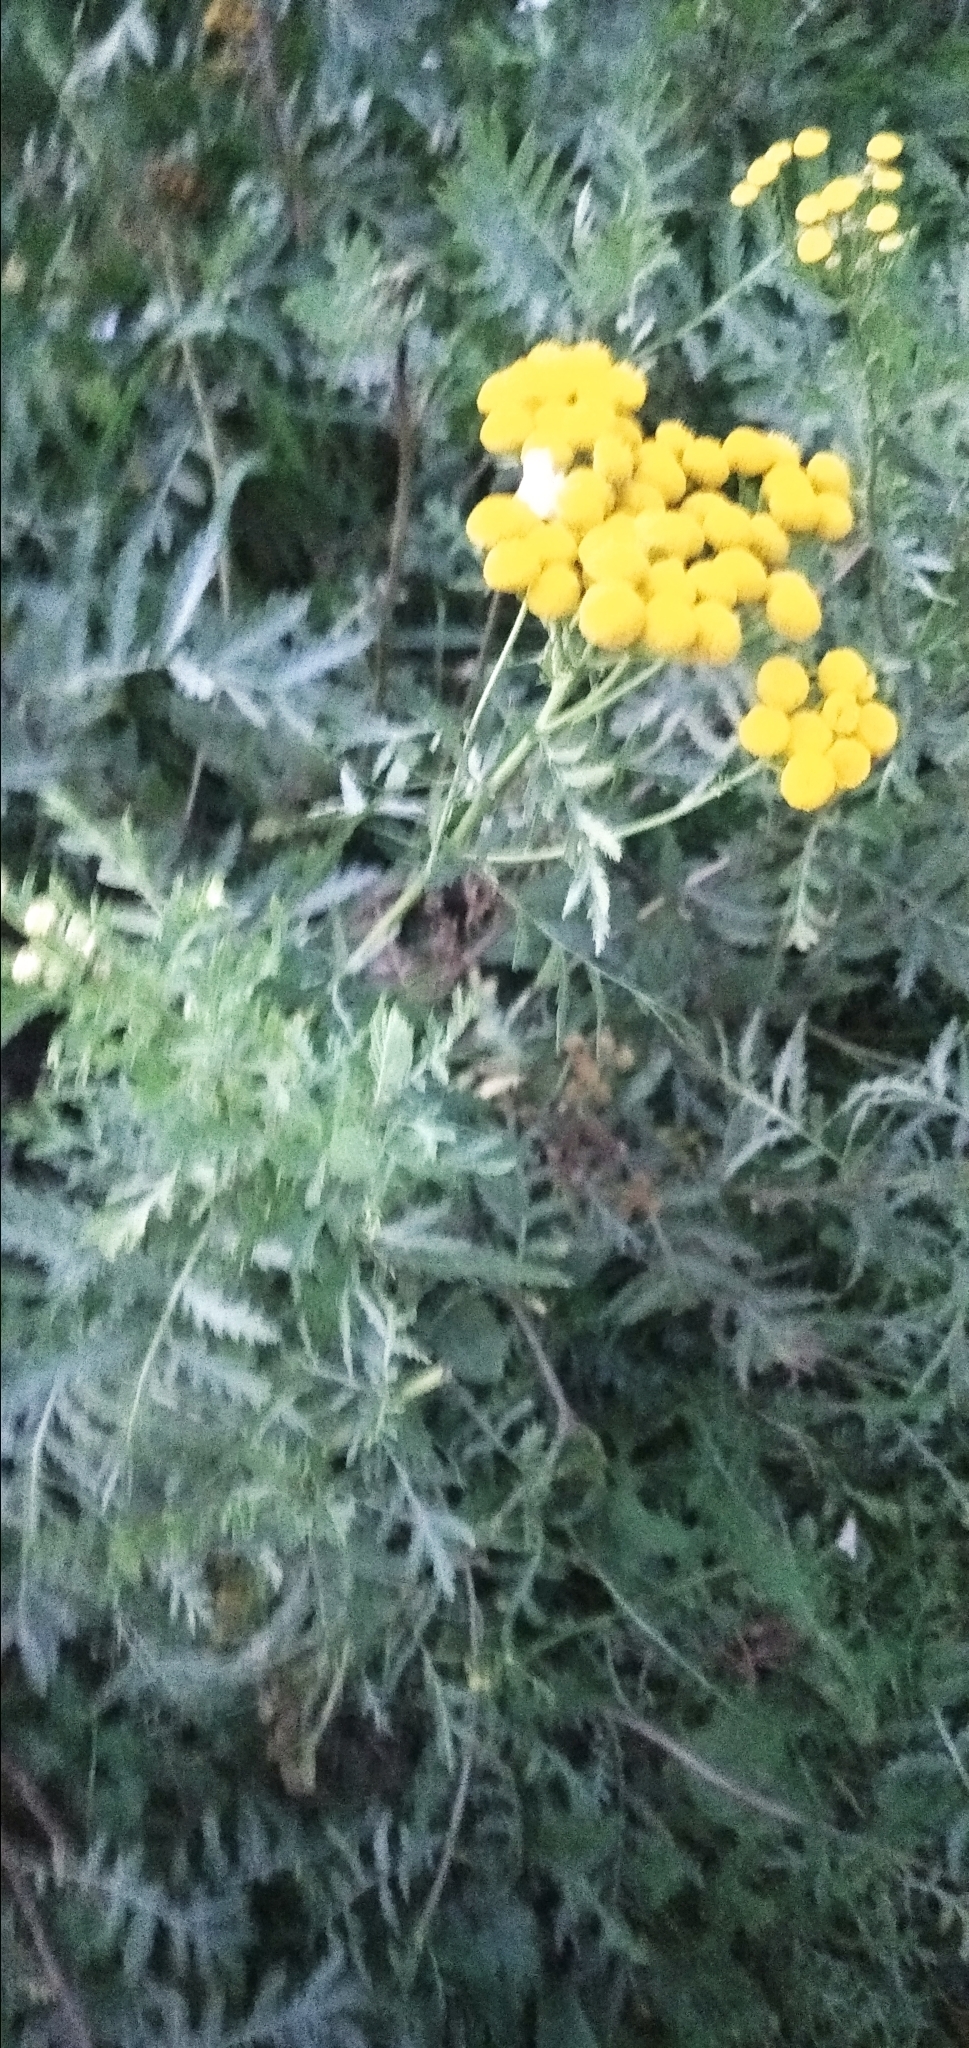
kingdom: Plantae
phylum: Tracheophyta
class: Magnoliopsida
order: Asterales
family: Asteraceae
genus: Tanacetum
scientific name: Tanacetum vulgare
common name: Common tansy
